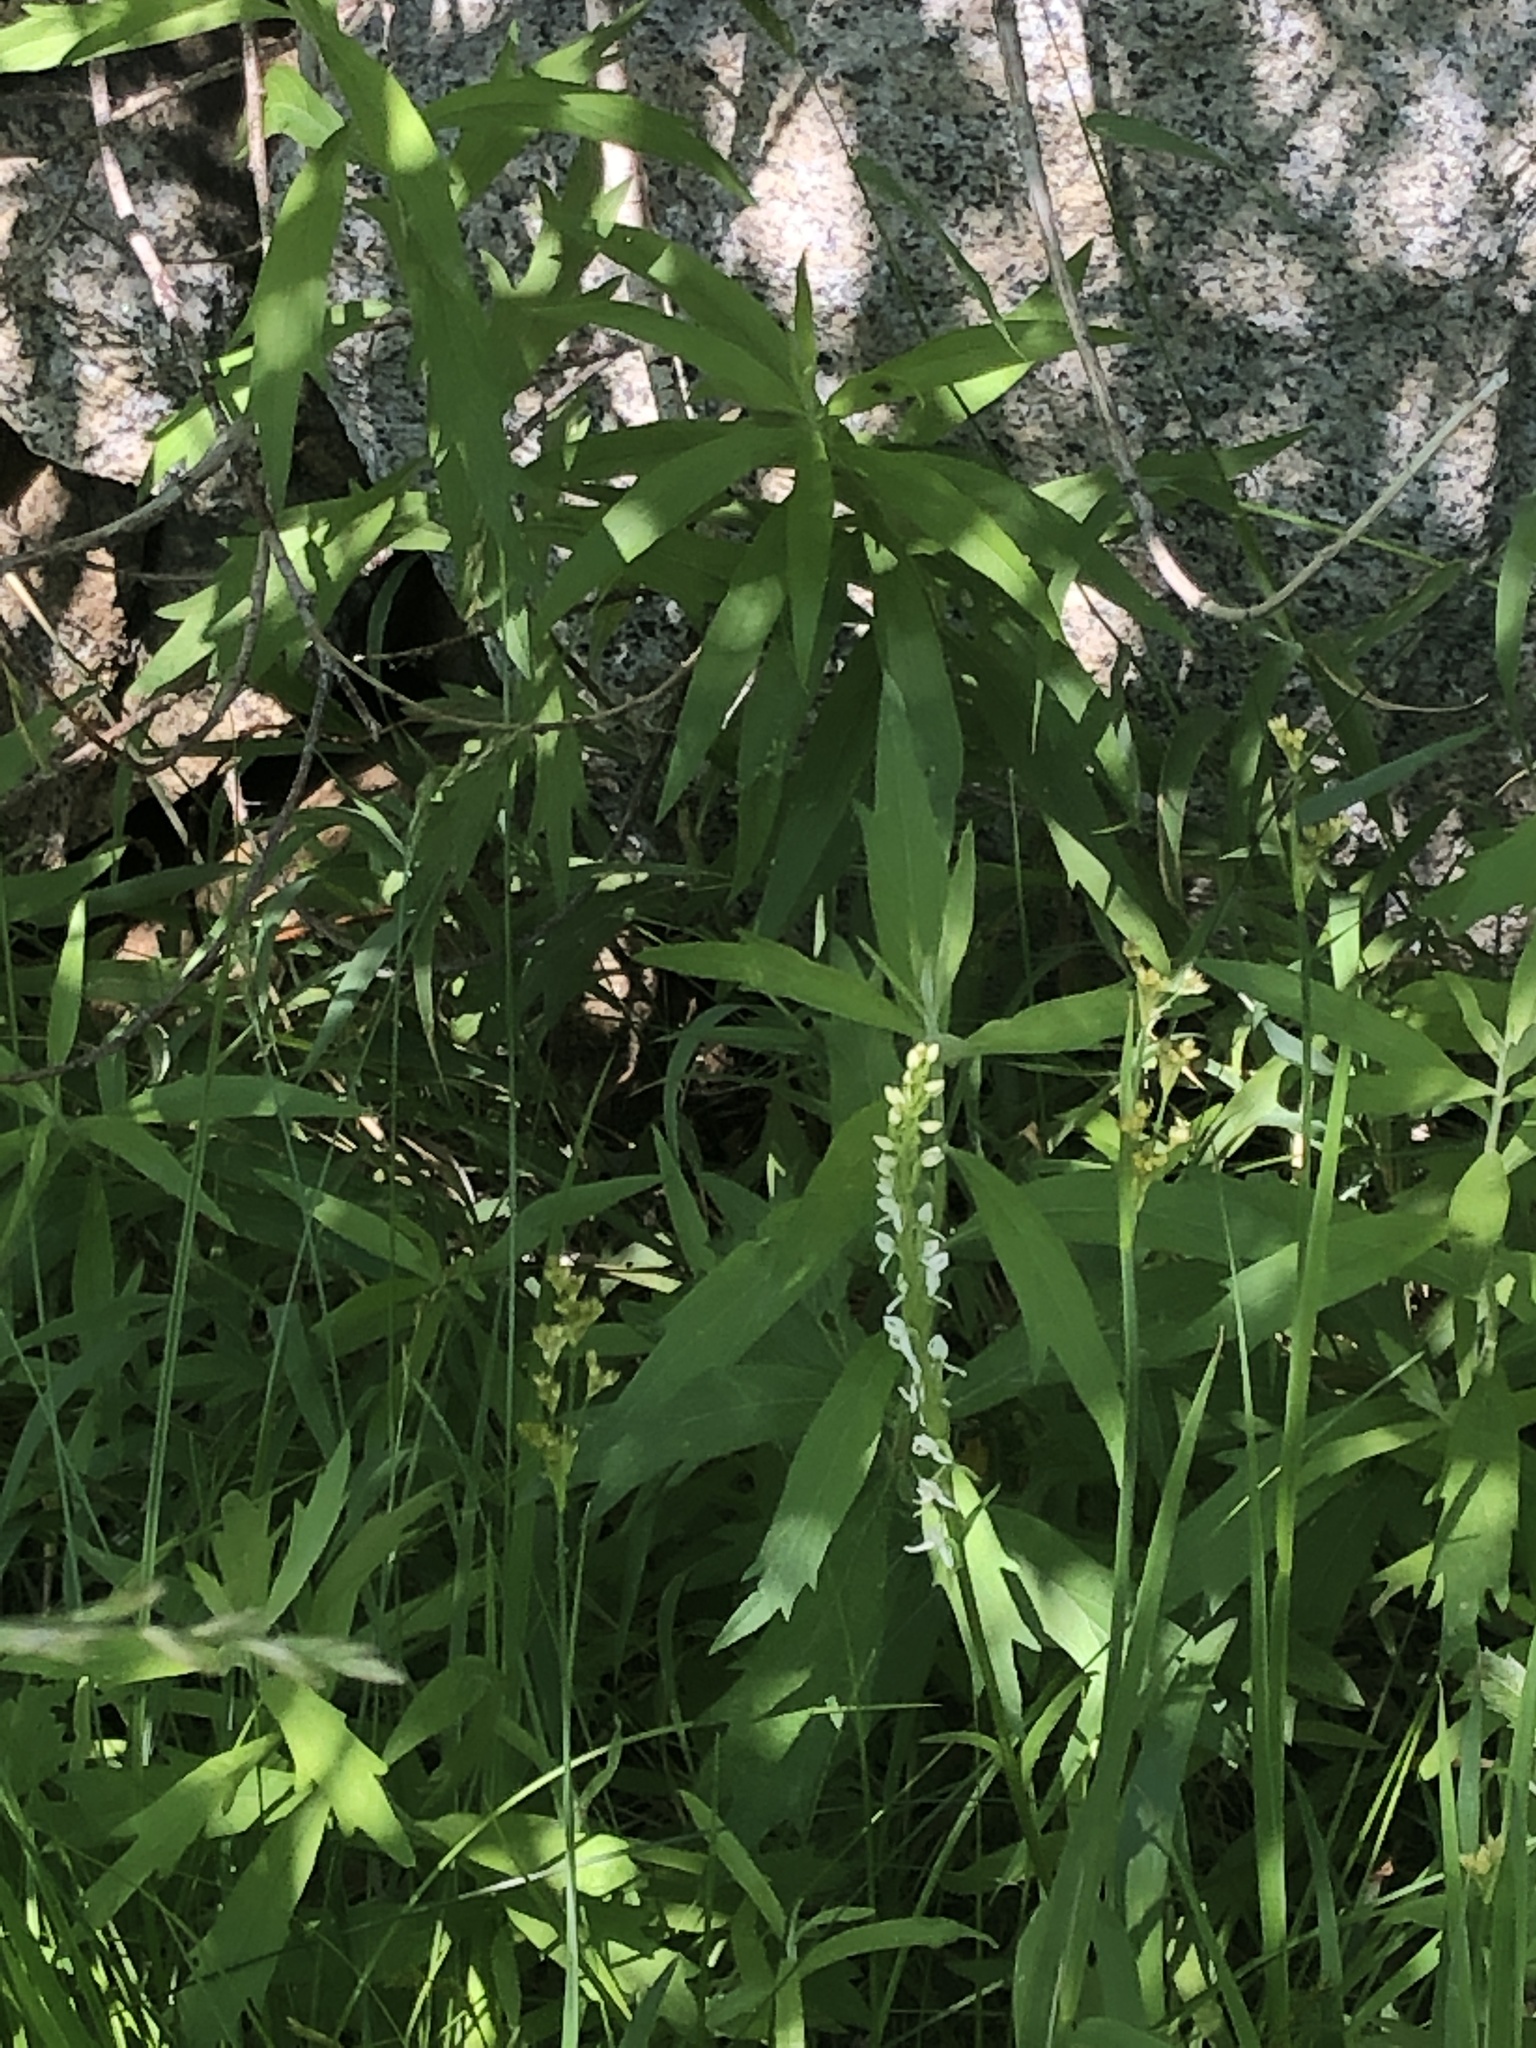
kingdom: Plantae
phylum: Tracheophyta
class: Liliopsida
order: Asparagales
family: Orchidaceae
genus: Platanthera
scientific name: Platanthera dilatata
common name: Bog candles
